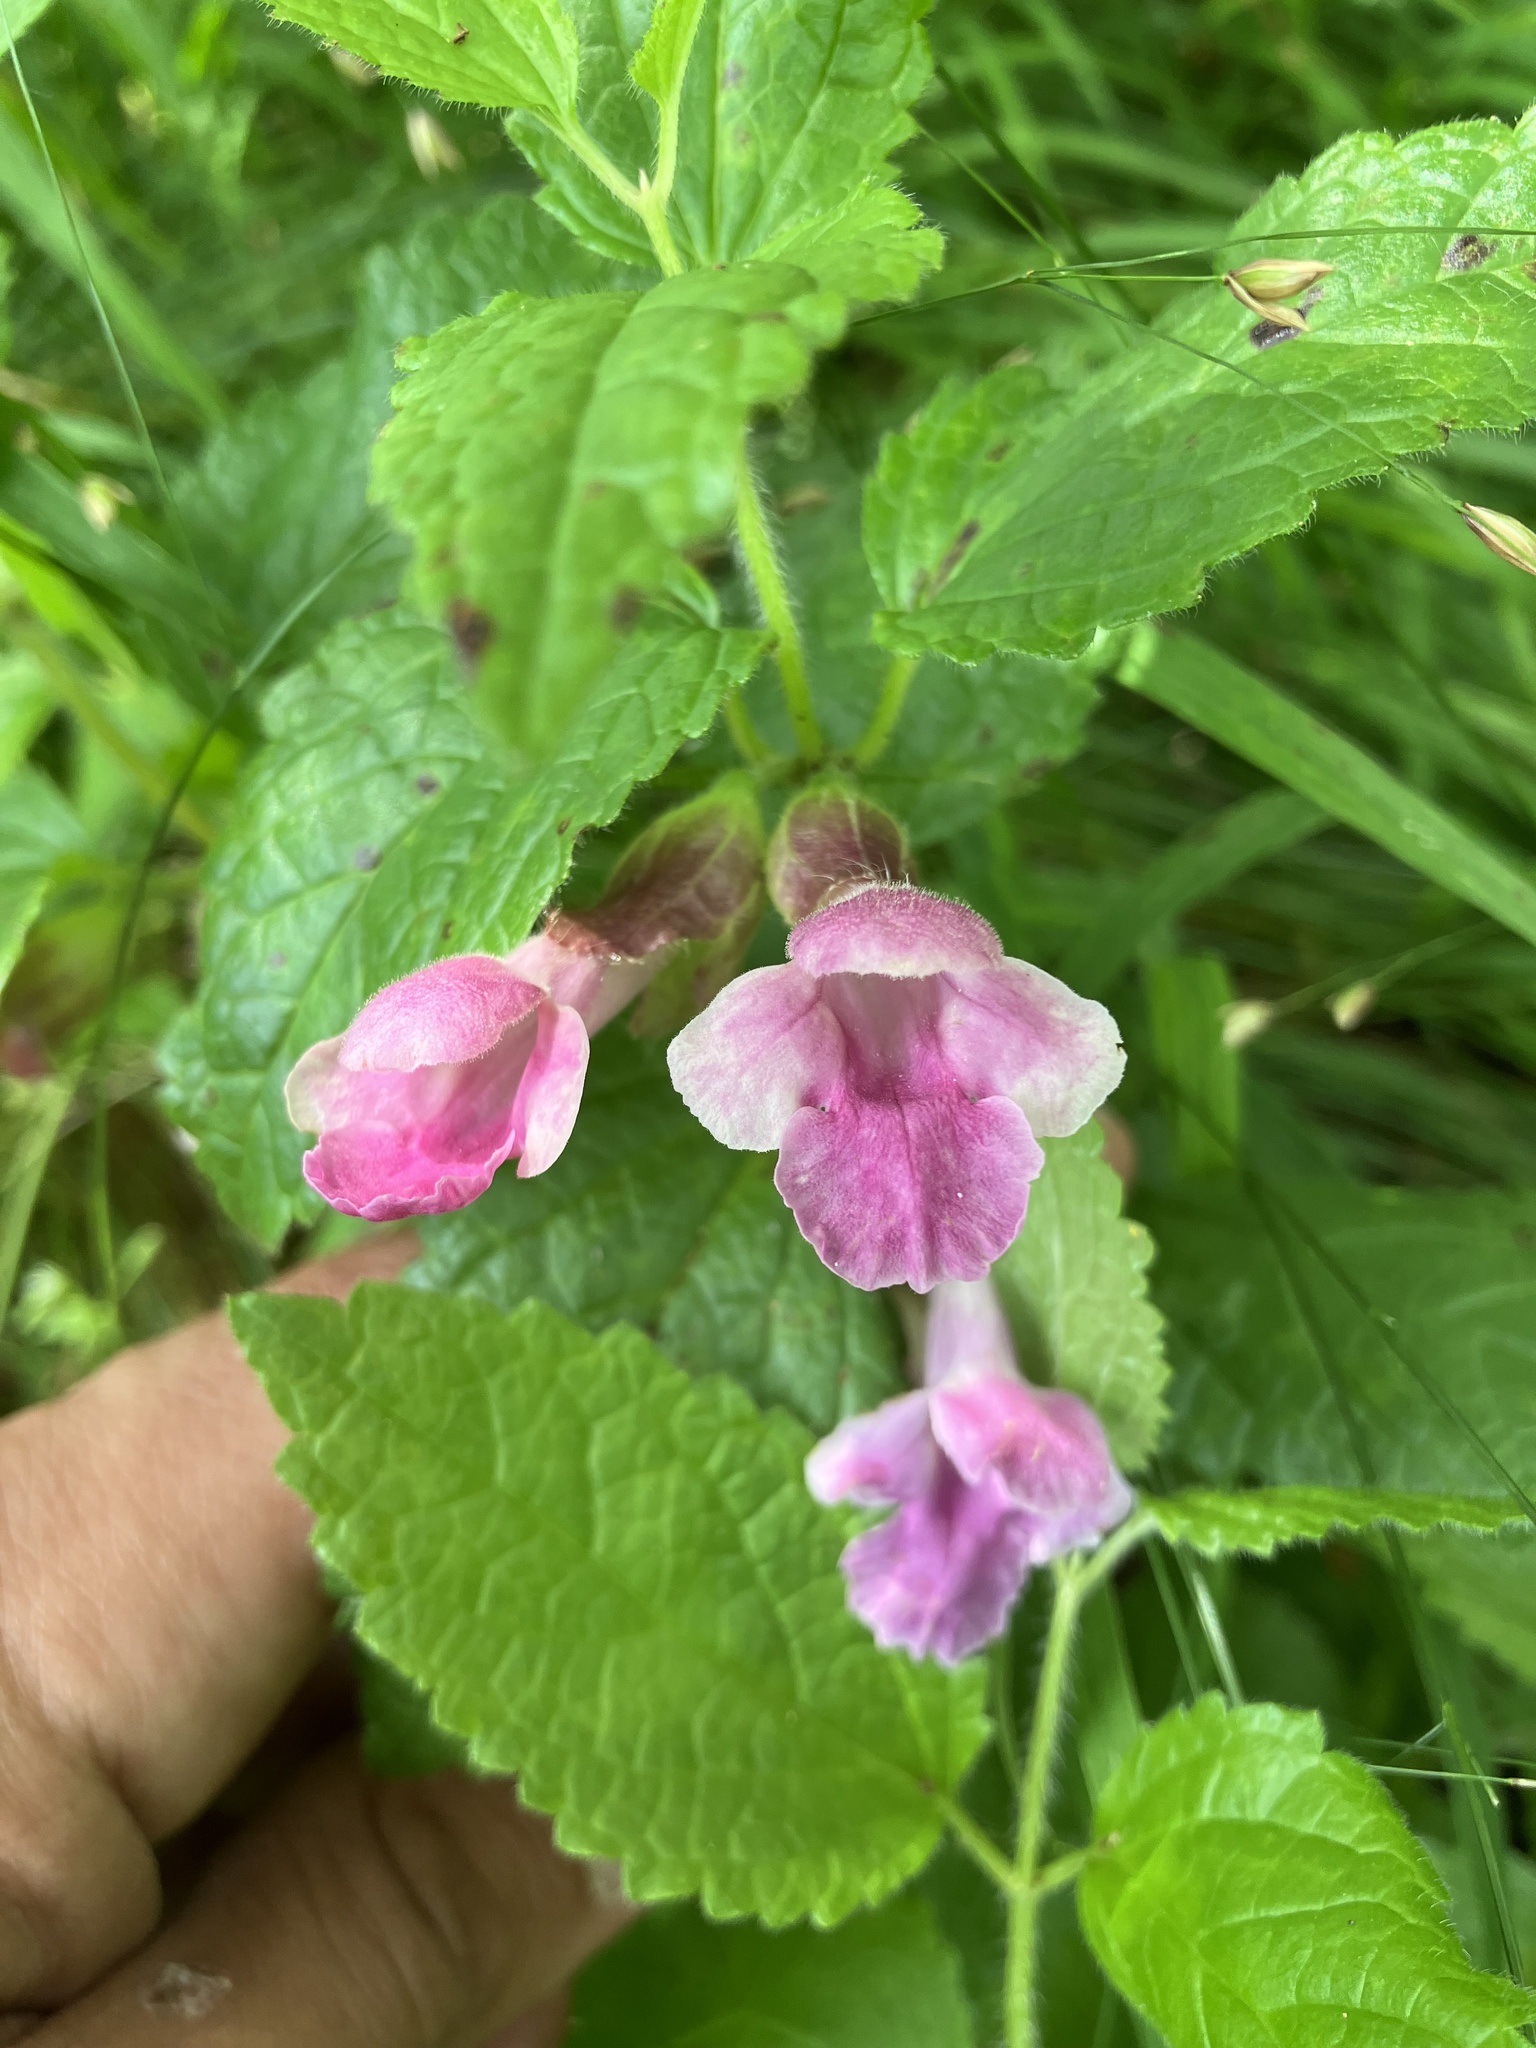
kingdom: Plantae
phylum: Tracheophyta
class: Magnoliopsida
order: Lamiales
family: Lamiaceae
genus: Melittis
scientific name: Melittis melissophyllum
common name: Bastard balm
